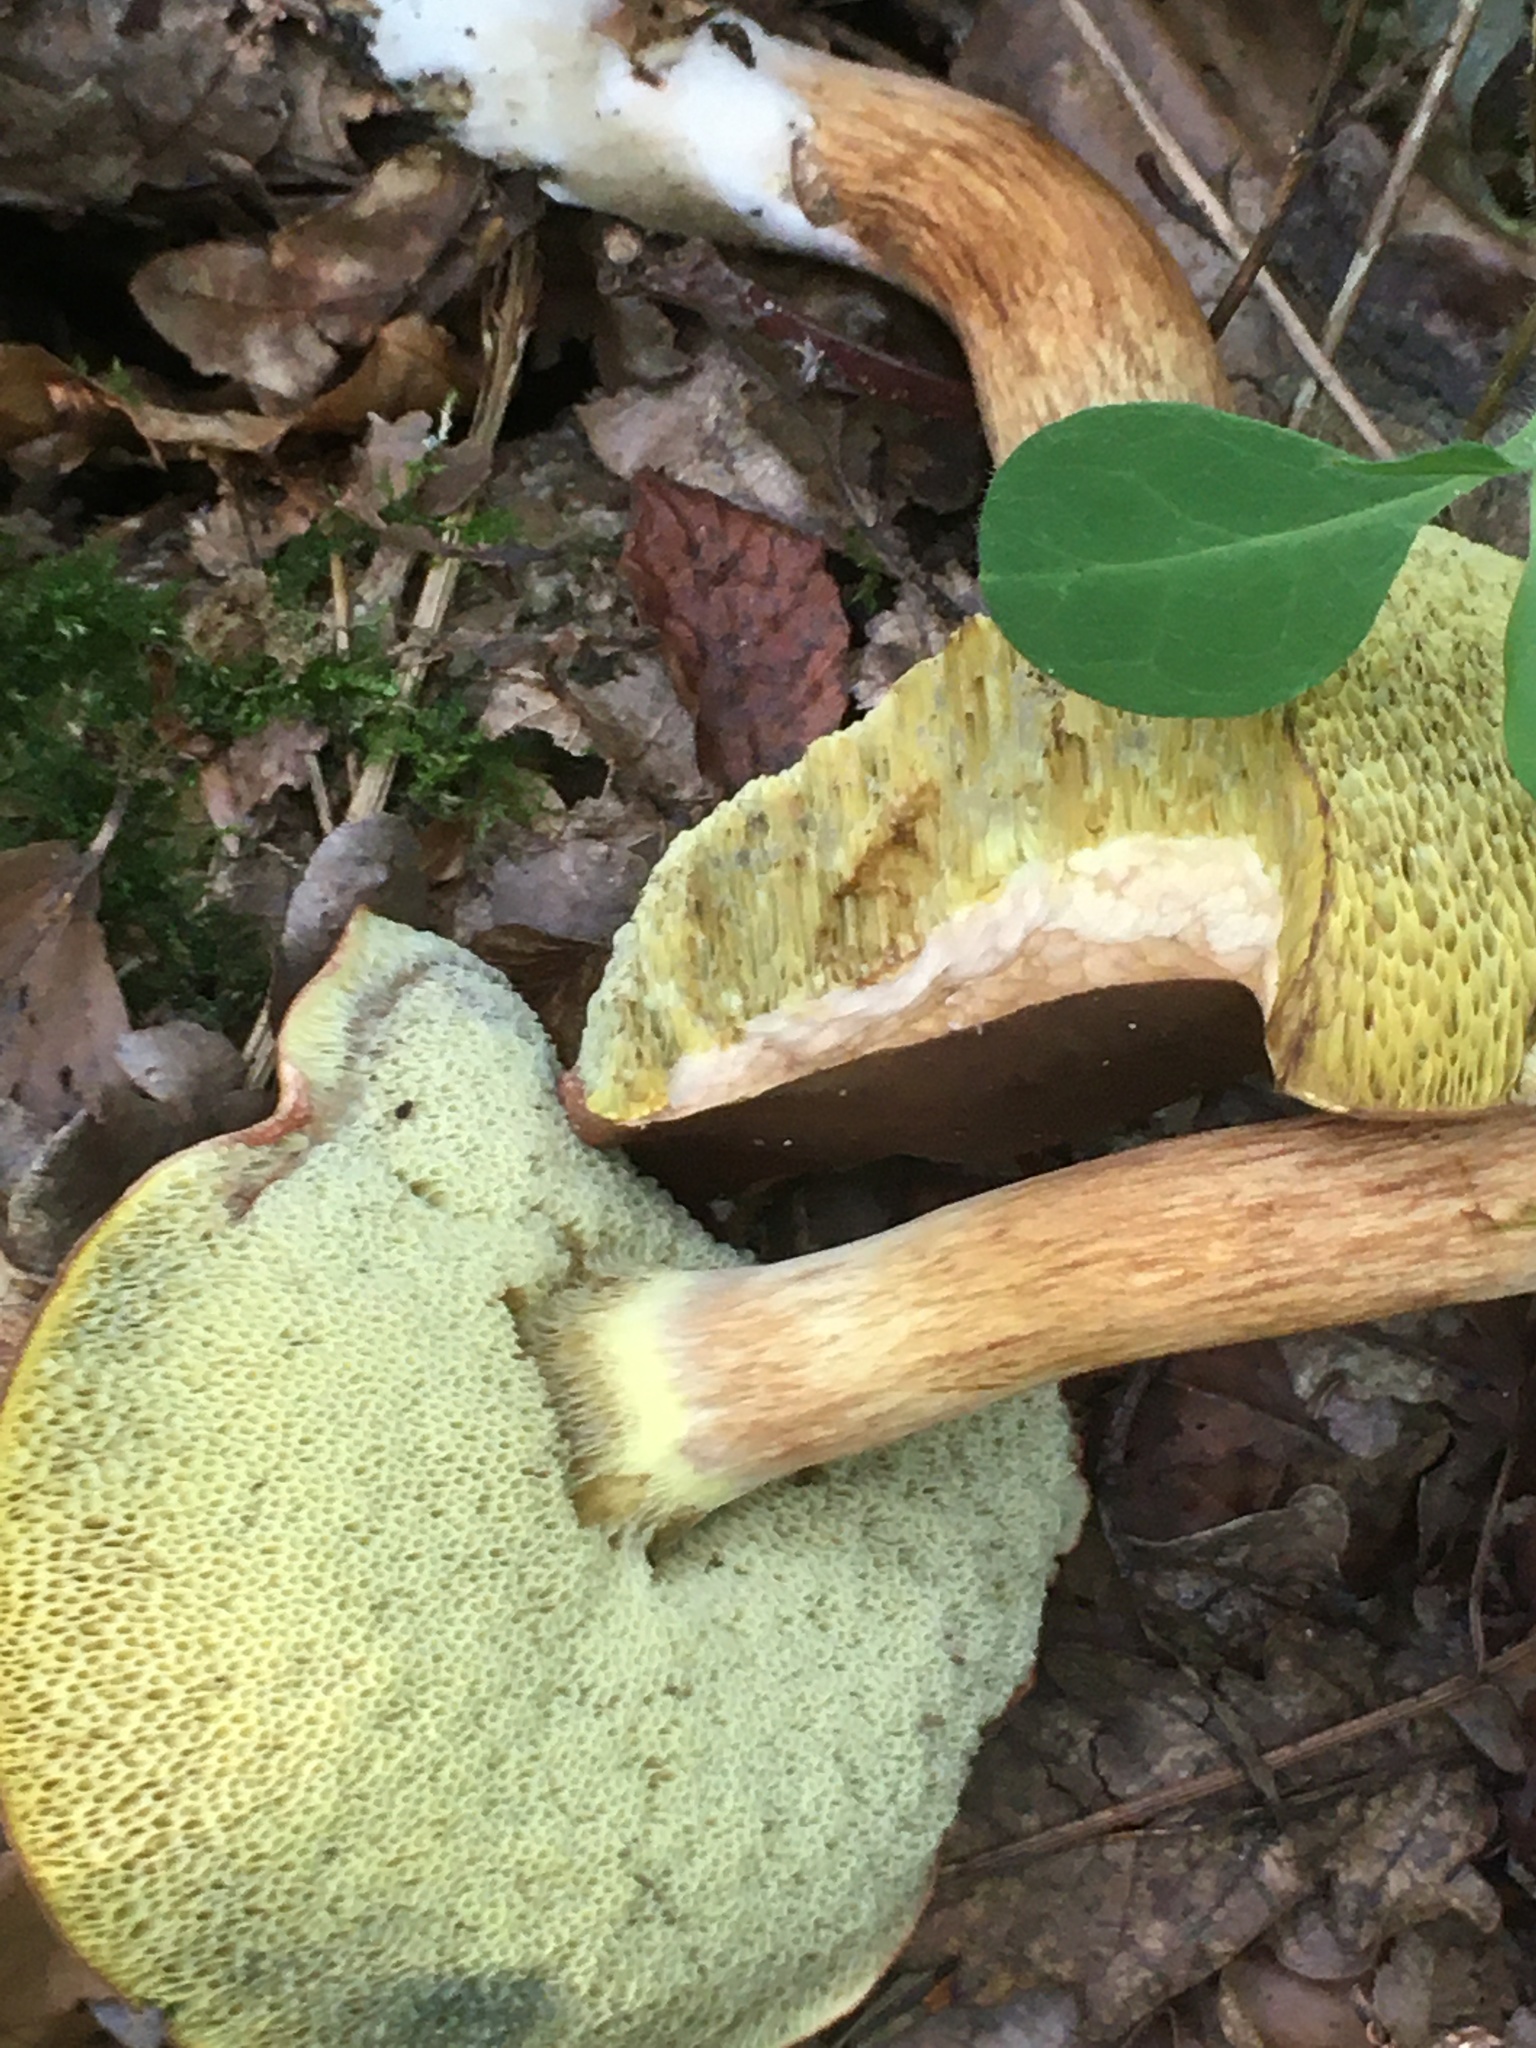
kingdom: Fungi
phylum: Basidiomycota
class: Agaricomycetes
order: Boletales
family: Boletaceae
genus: Imleria
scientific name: Imleria badia
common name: Bay bolete
